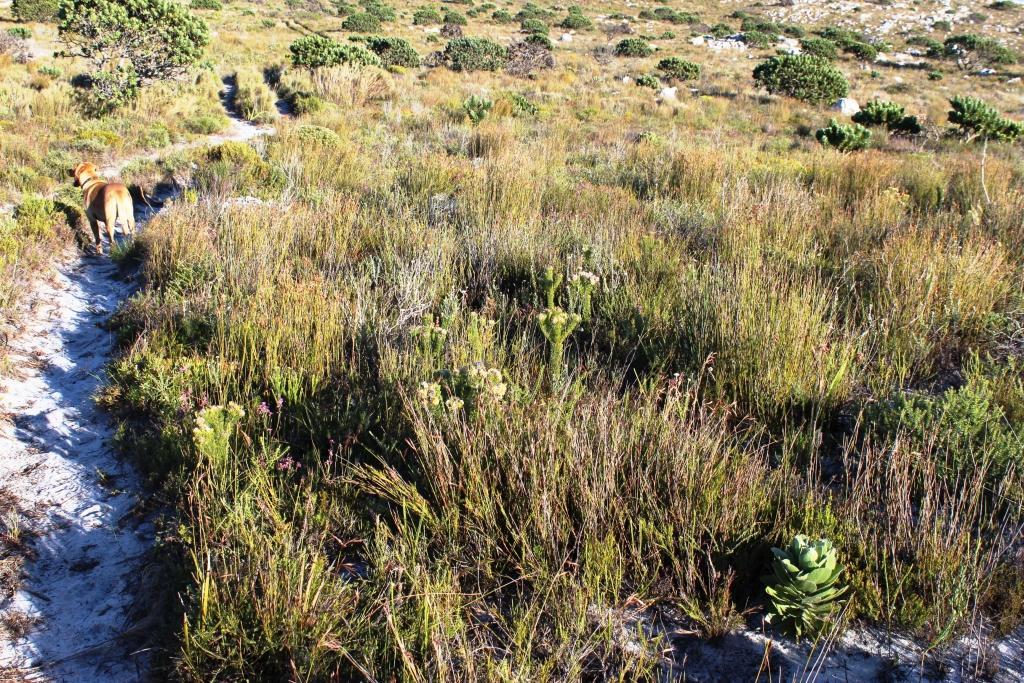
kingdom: Plantae
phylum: Tracheophyta
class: Magnoliopsida
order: Proteales
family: Proteaceae
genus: Serruria
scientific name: Serruria villosa
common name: Golden spiderhead
